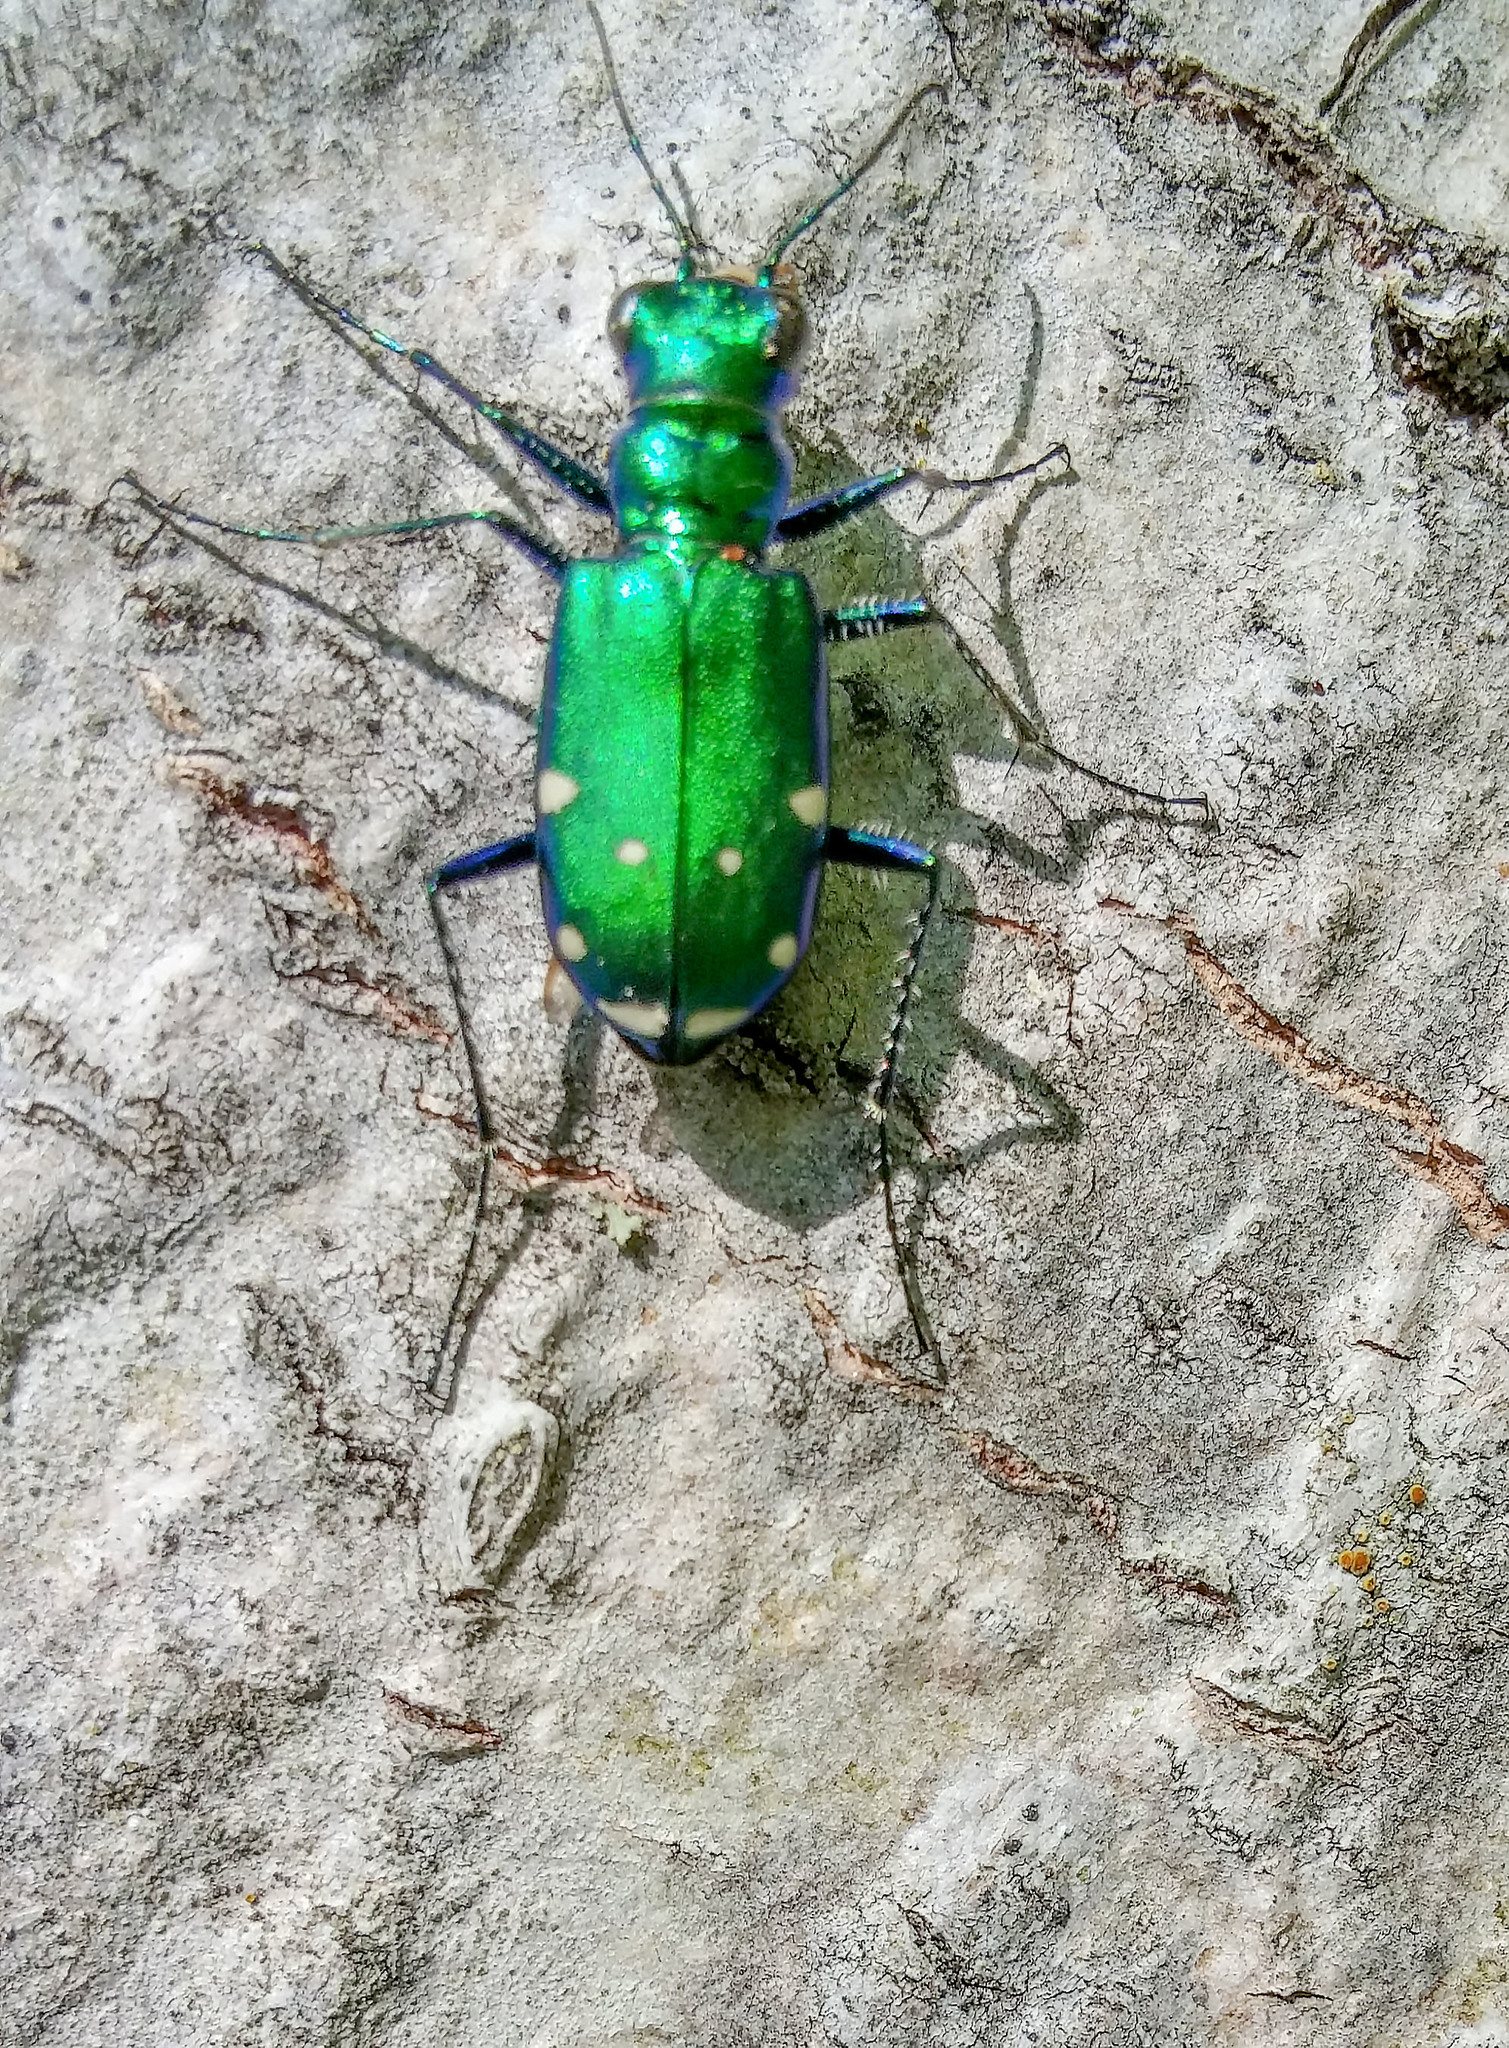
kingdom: Animalia
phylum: Arthropoda
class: Insecta
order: Coleoptera
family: Carabidae
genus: Cicindela
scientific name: Cicindela sexguttata
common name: Six-spotted tiger beetle
